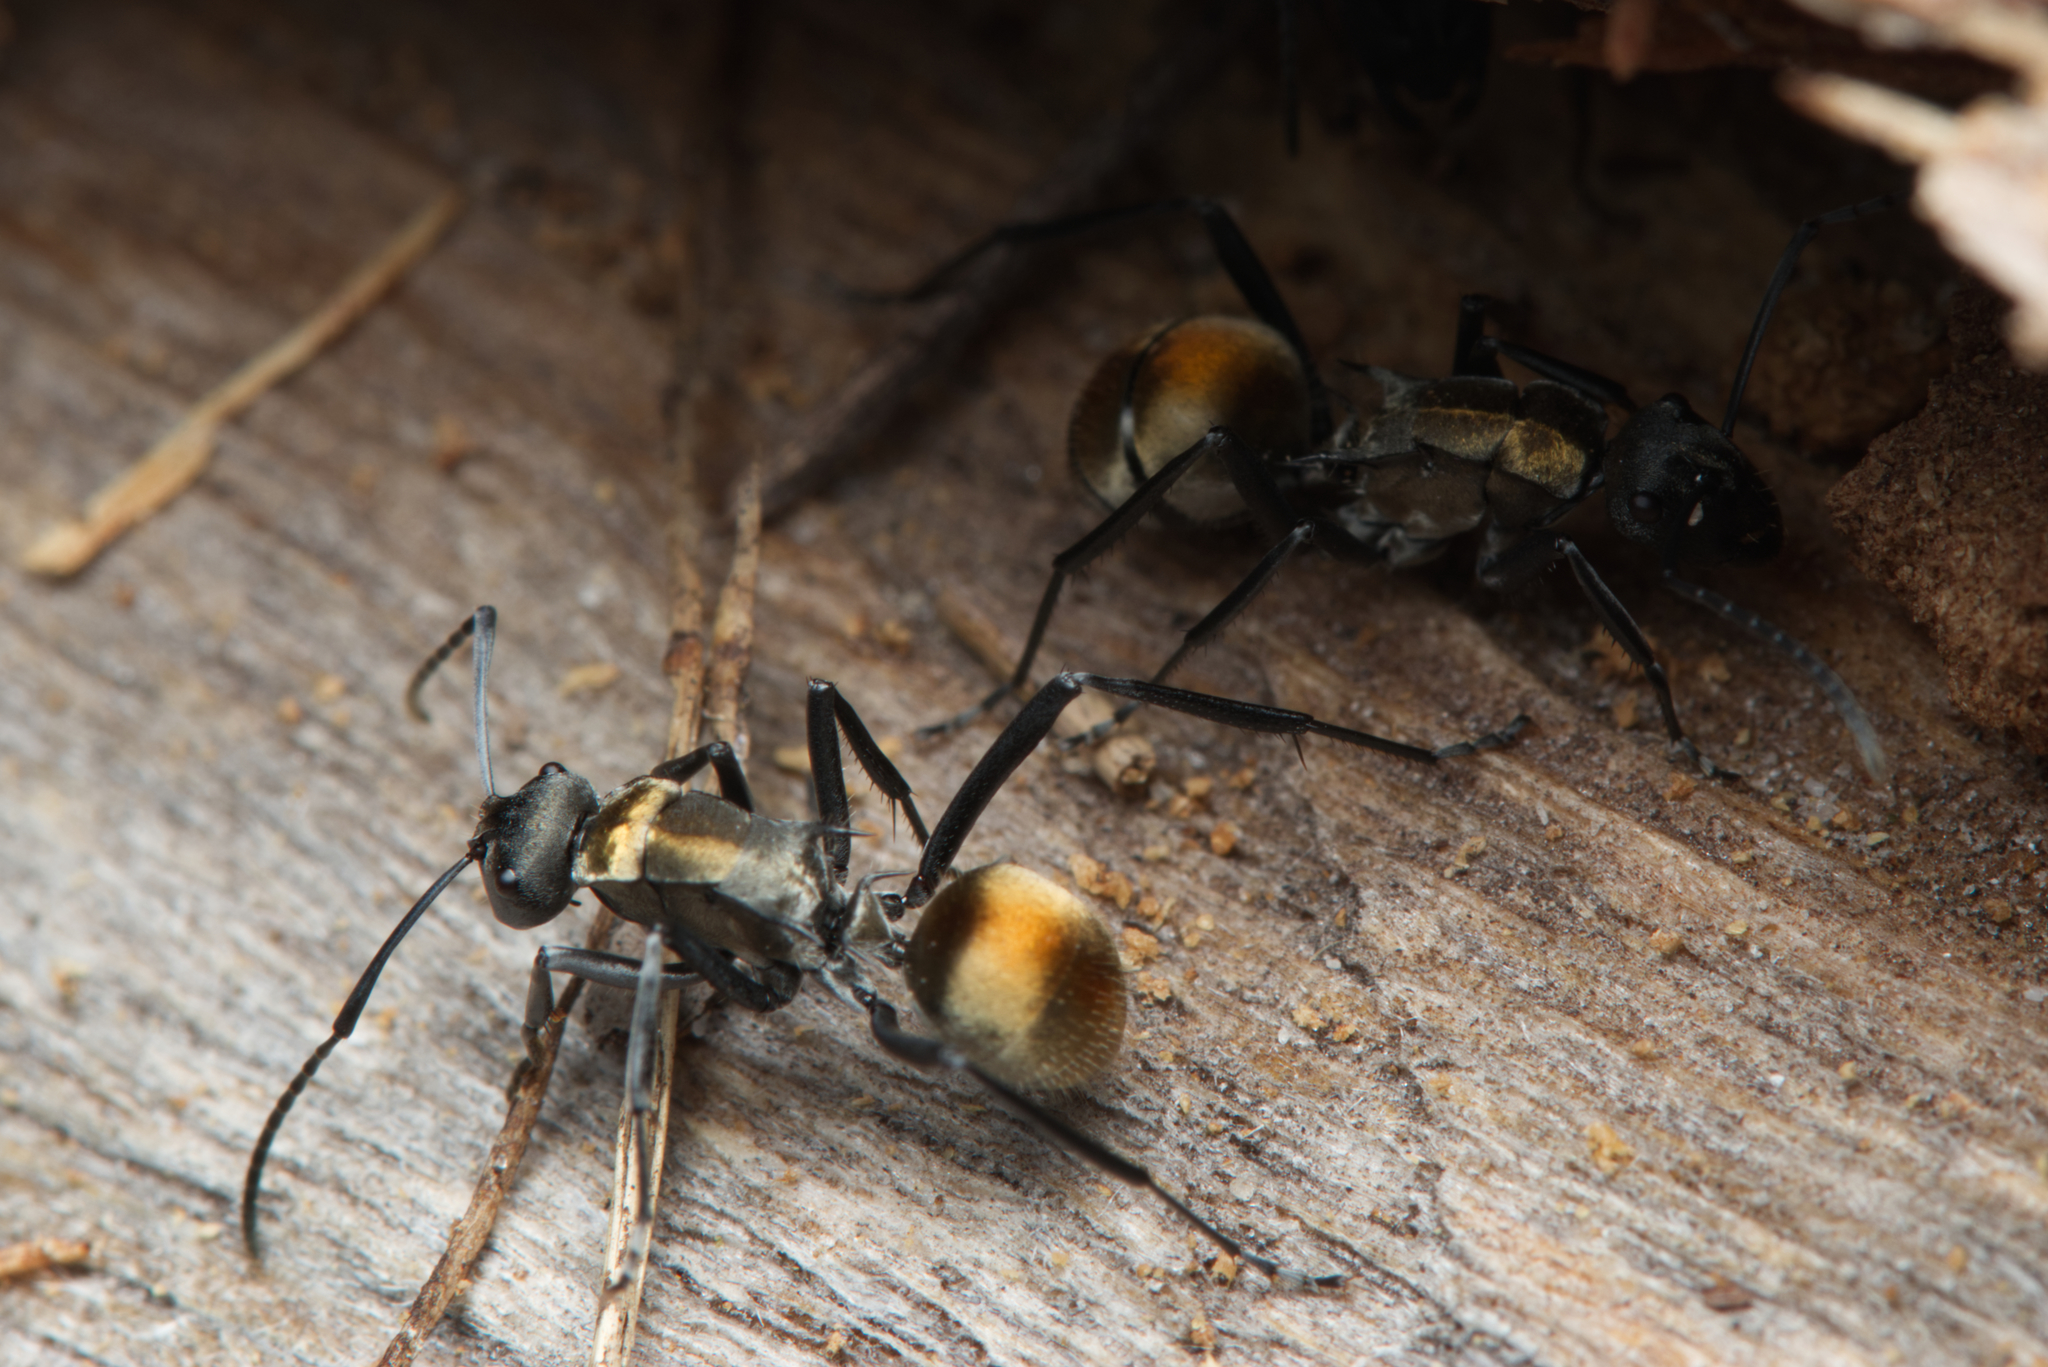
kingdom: Animalia
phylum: Arthropoda
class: Insecta
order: Hymenoptera
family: Formicidae
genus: Polyrhachis
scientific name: Polyrhachis ammon
